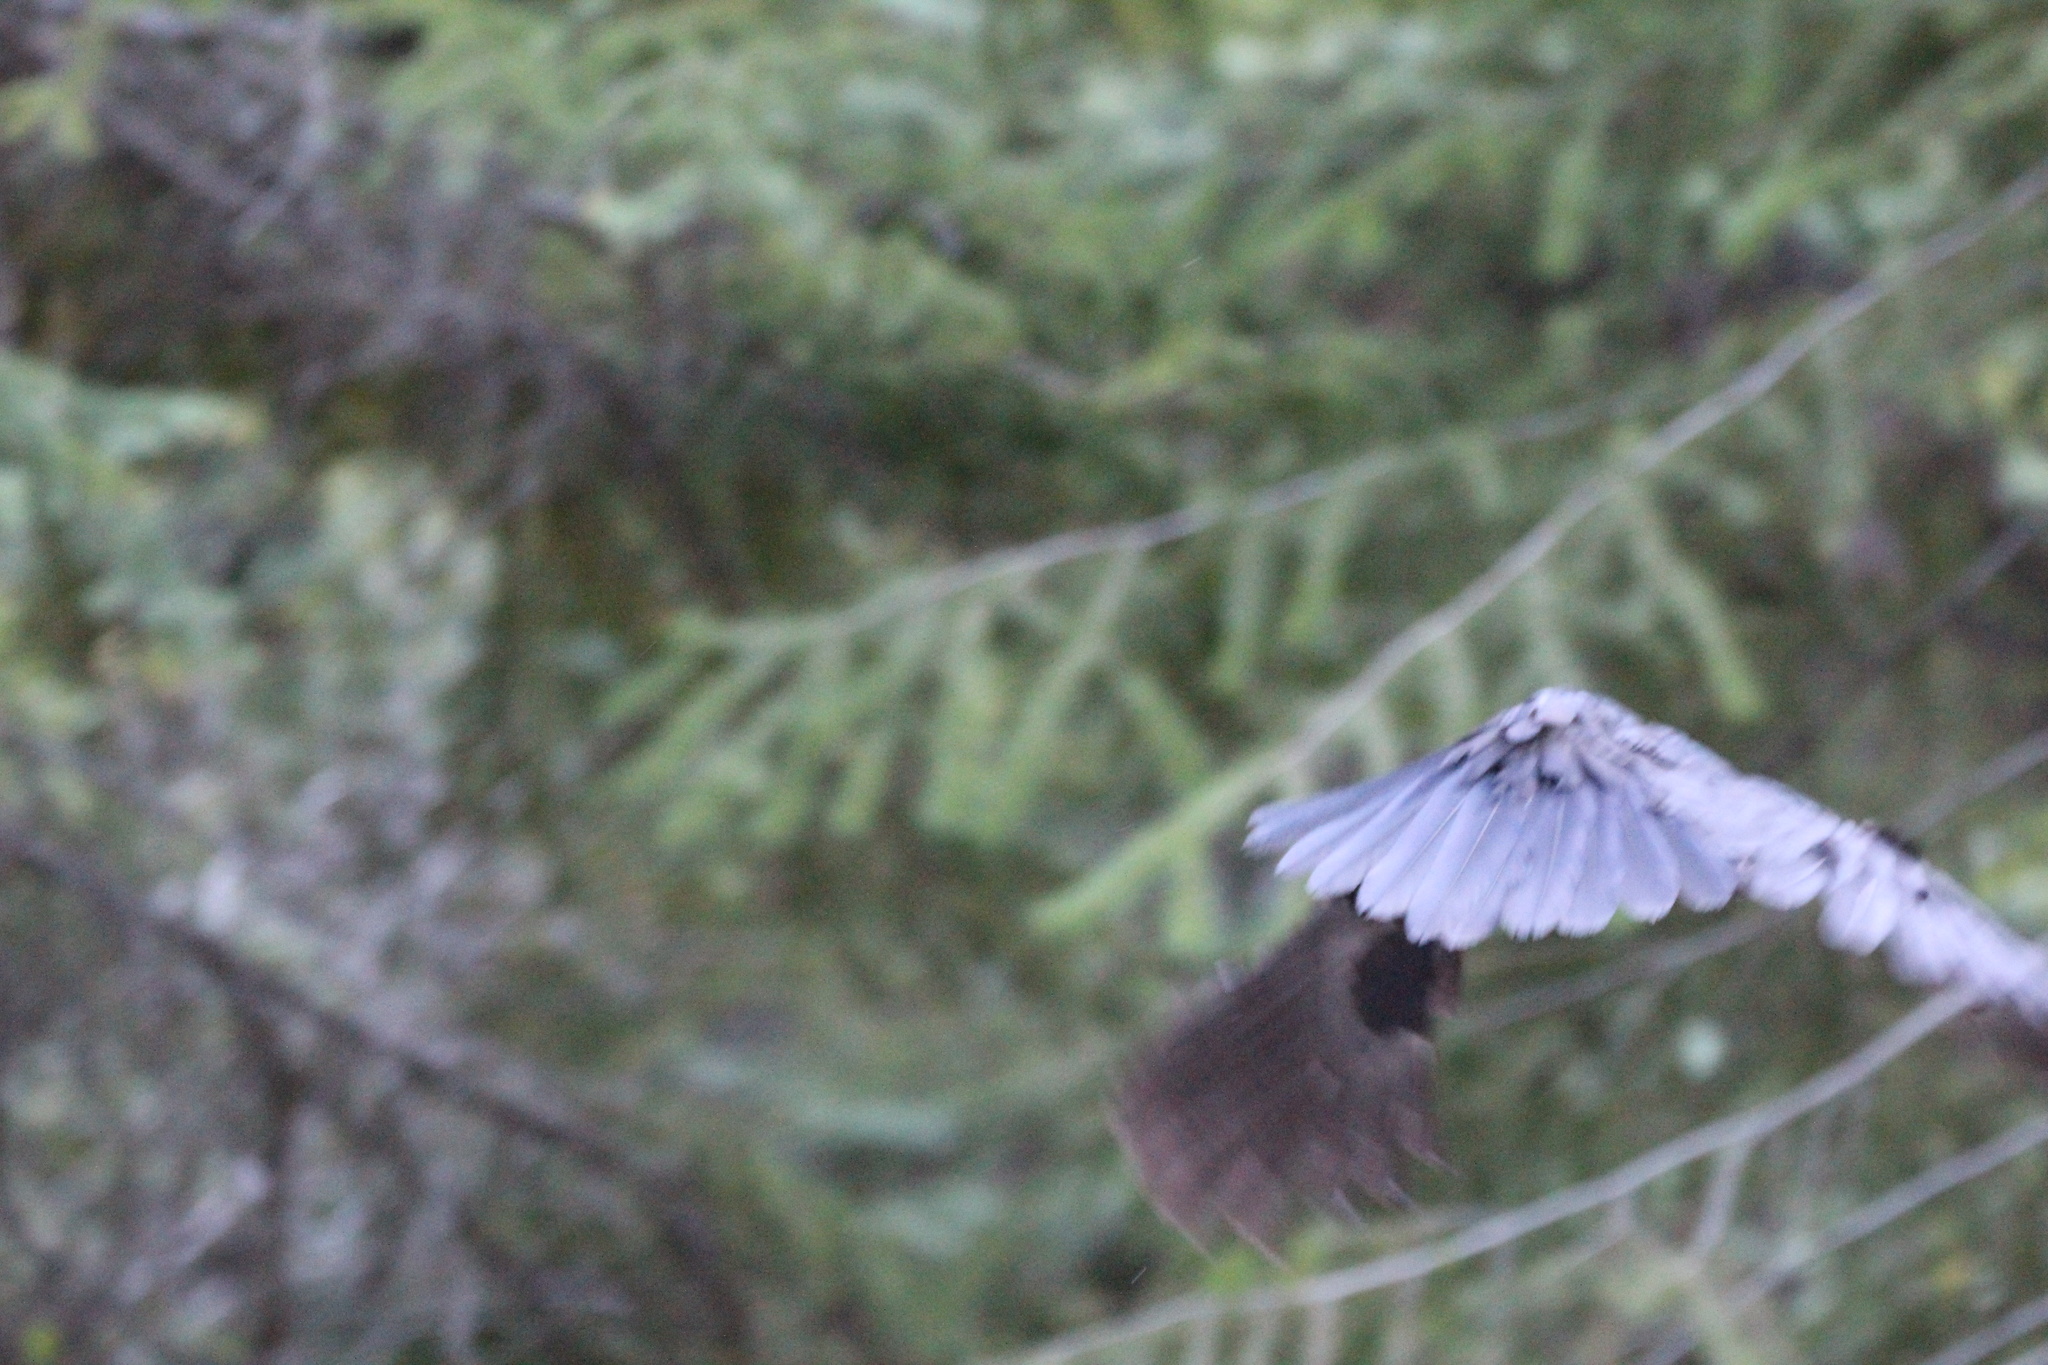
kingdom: Animalia
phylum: Chordata
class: Aves
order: Passeriformes
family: Corvidae
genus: Corvus
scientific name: Corvus corax
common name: Common raven
